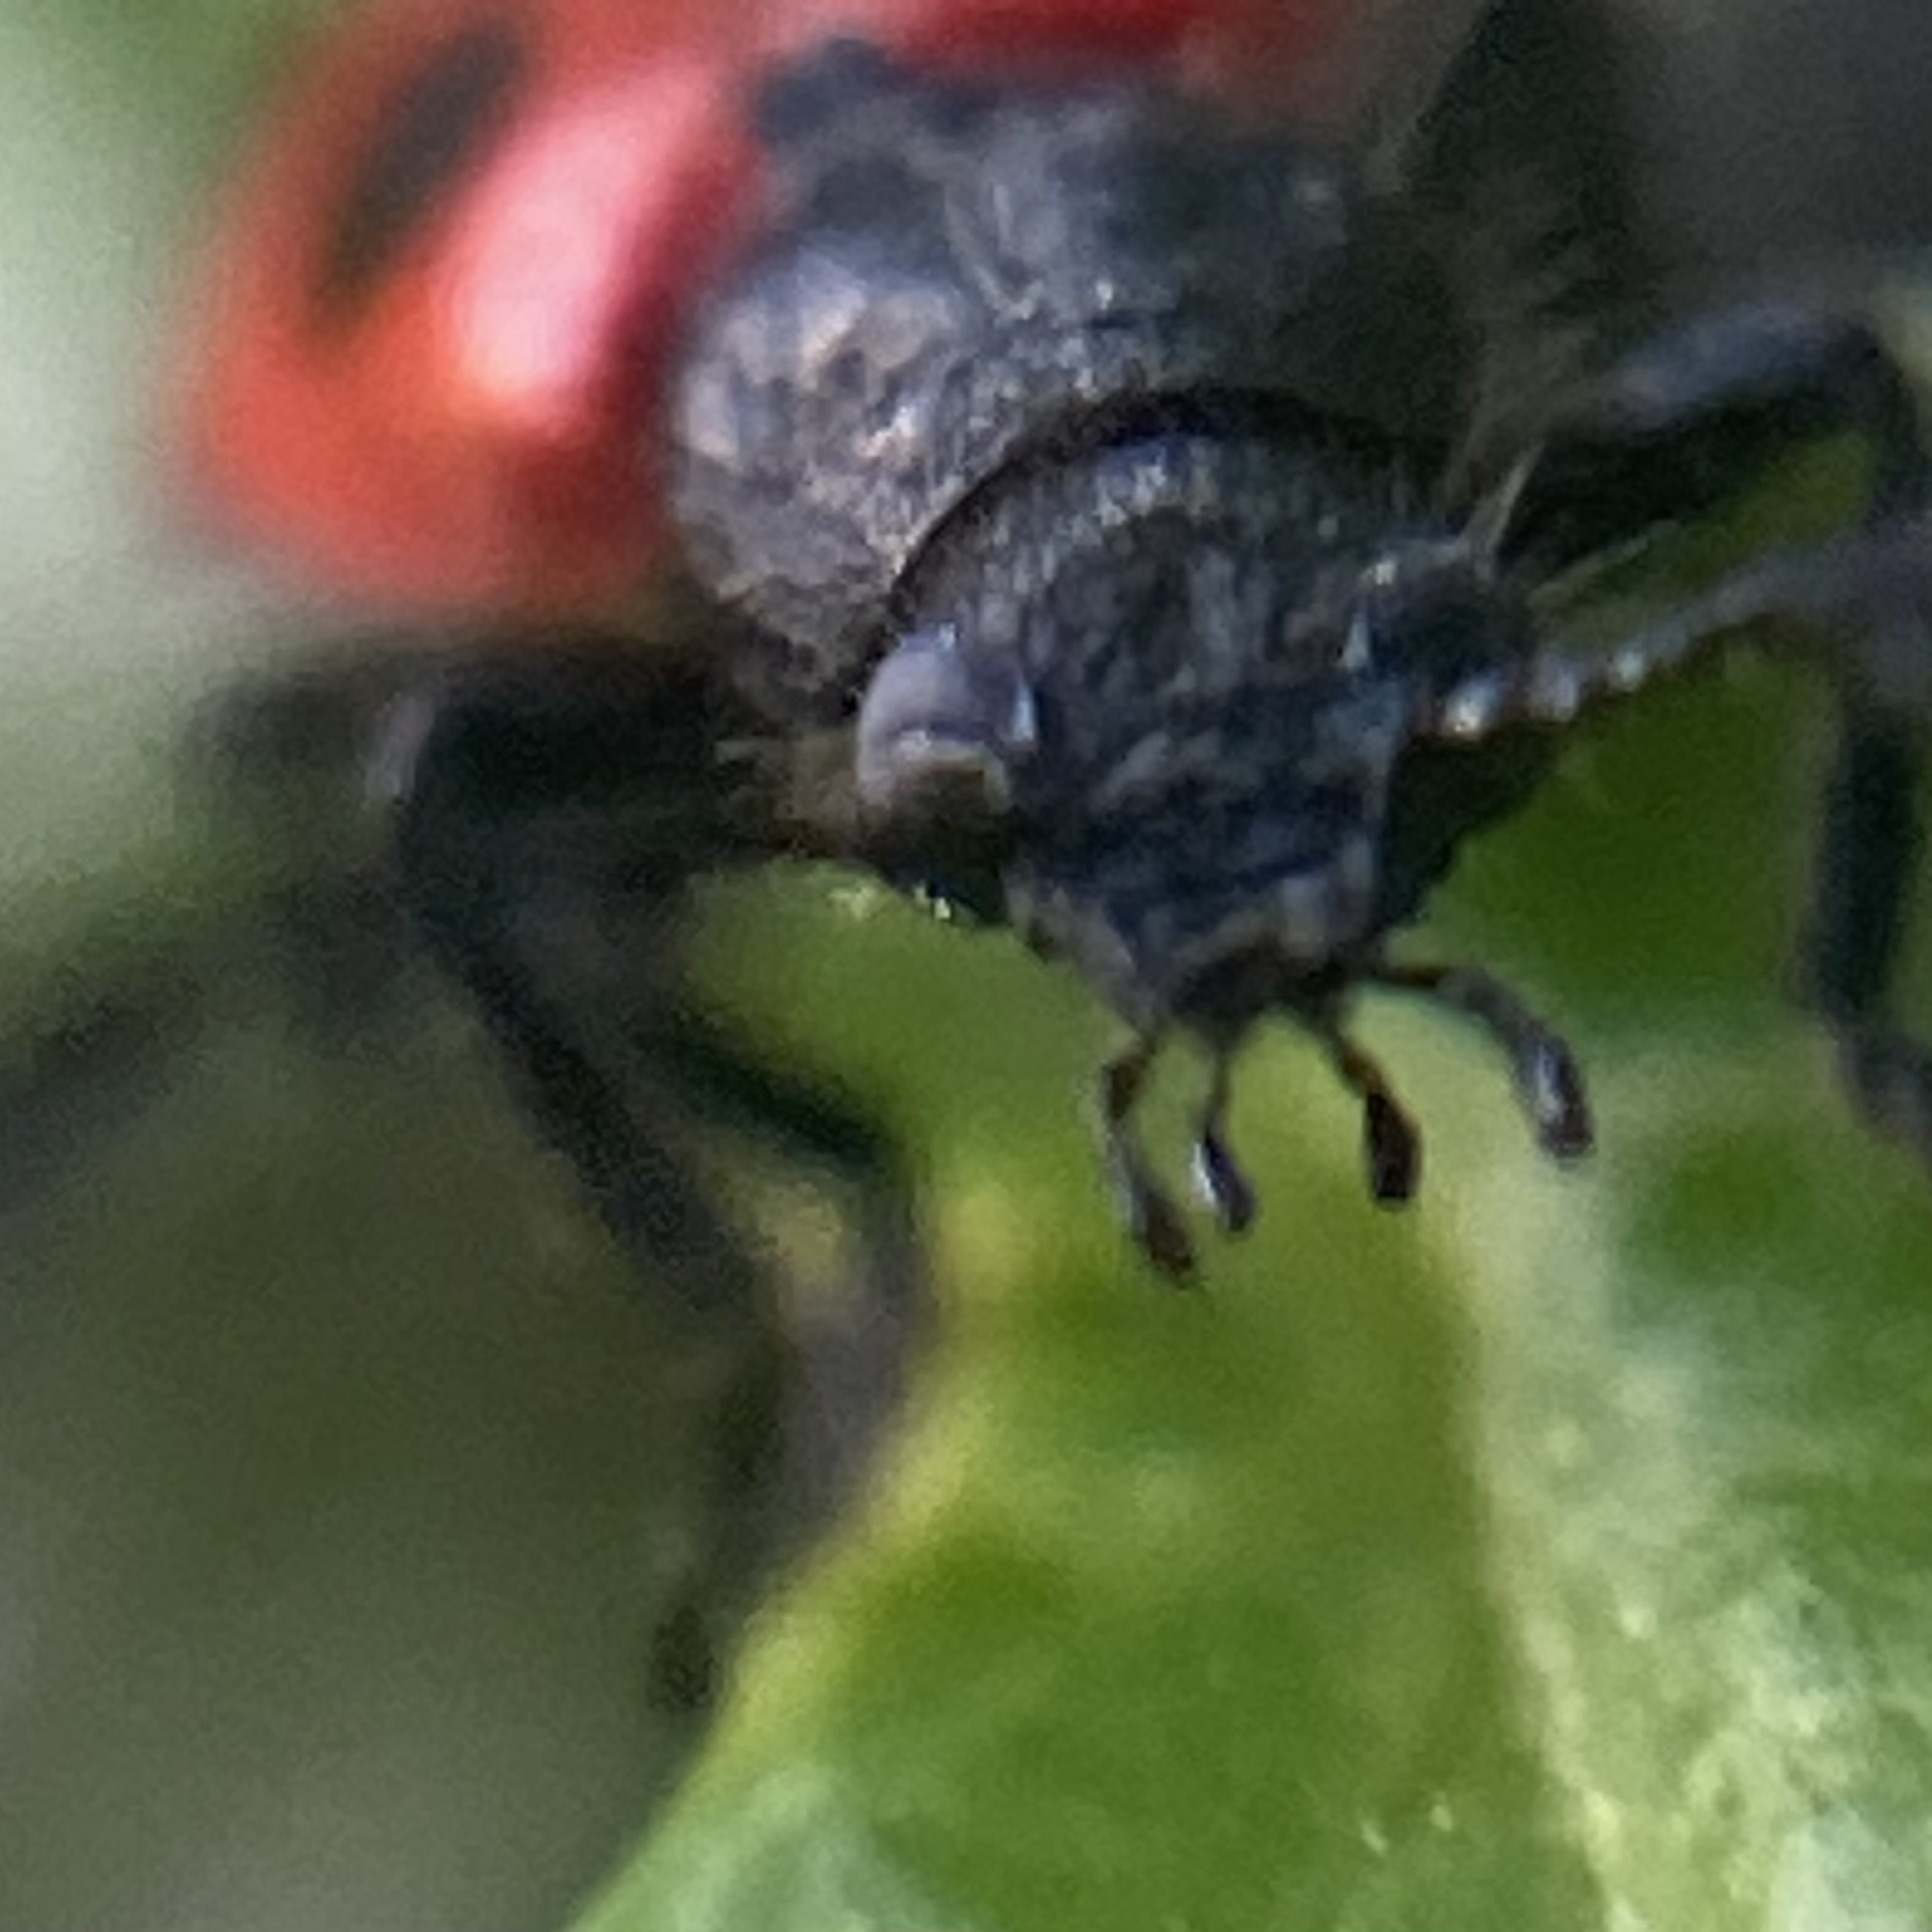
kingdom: Animalia
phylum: Arthropoda
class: Insecta
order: Coleoptera
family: Cleridae
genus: Pelonides
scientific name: Pelonides quadripunctatus
